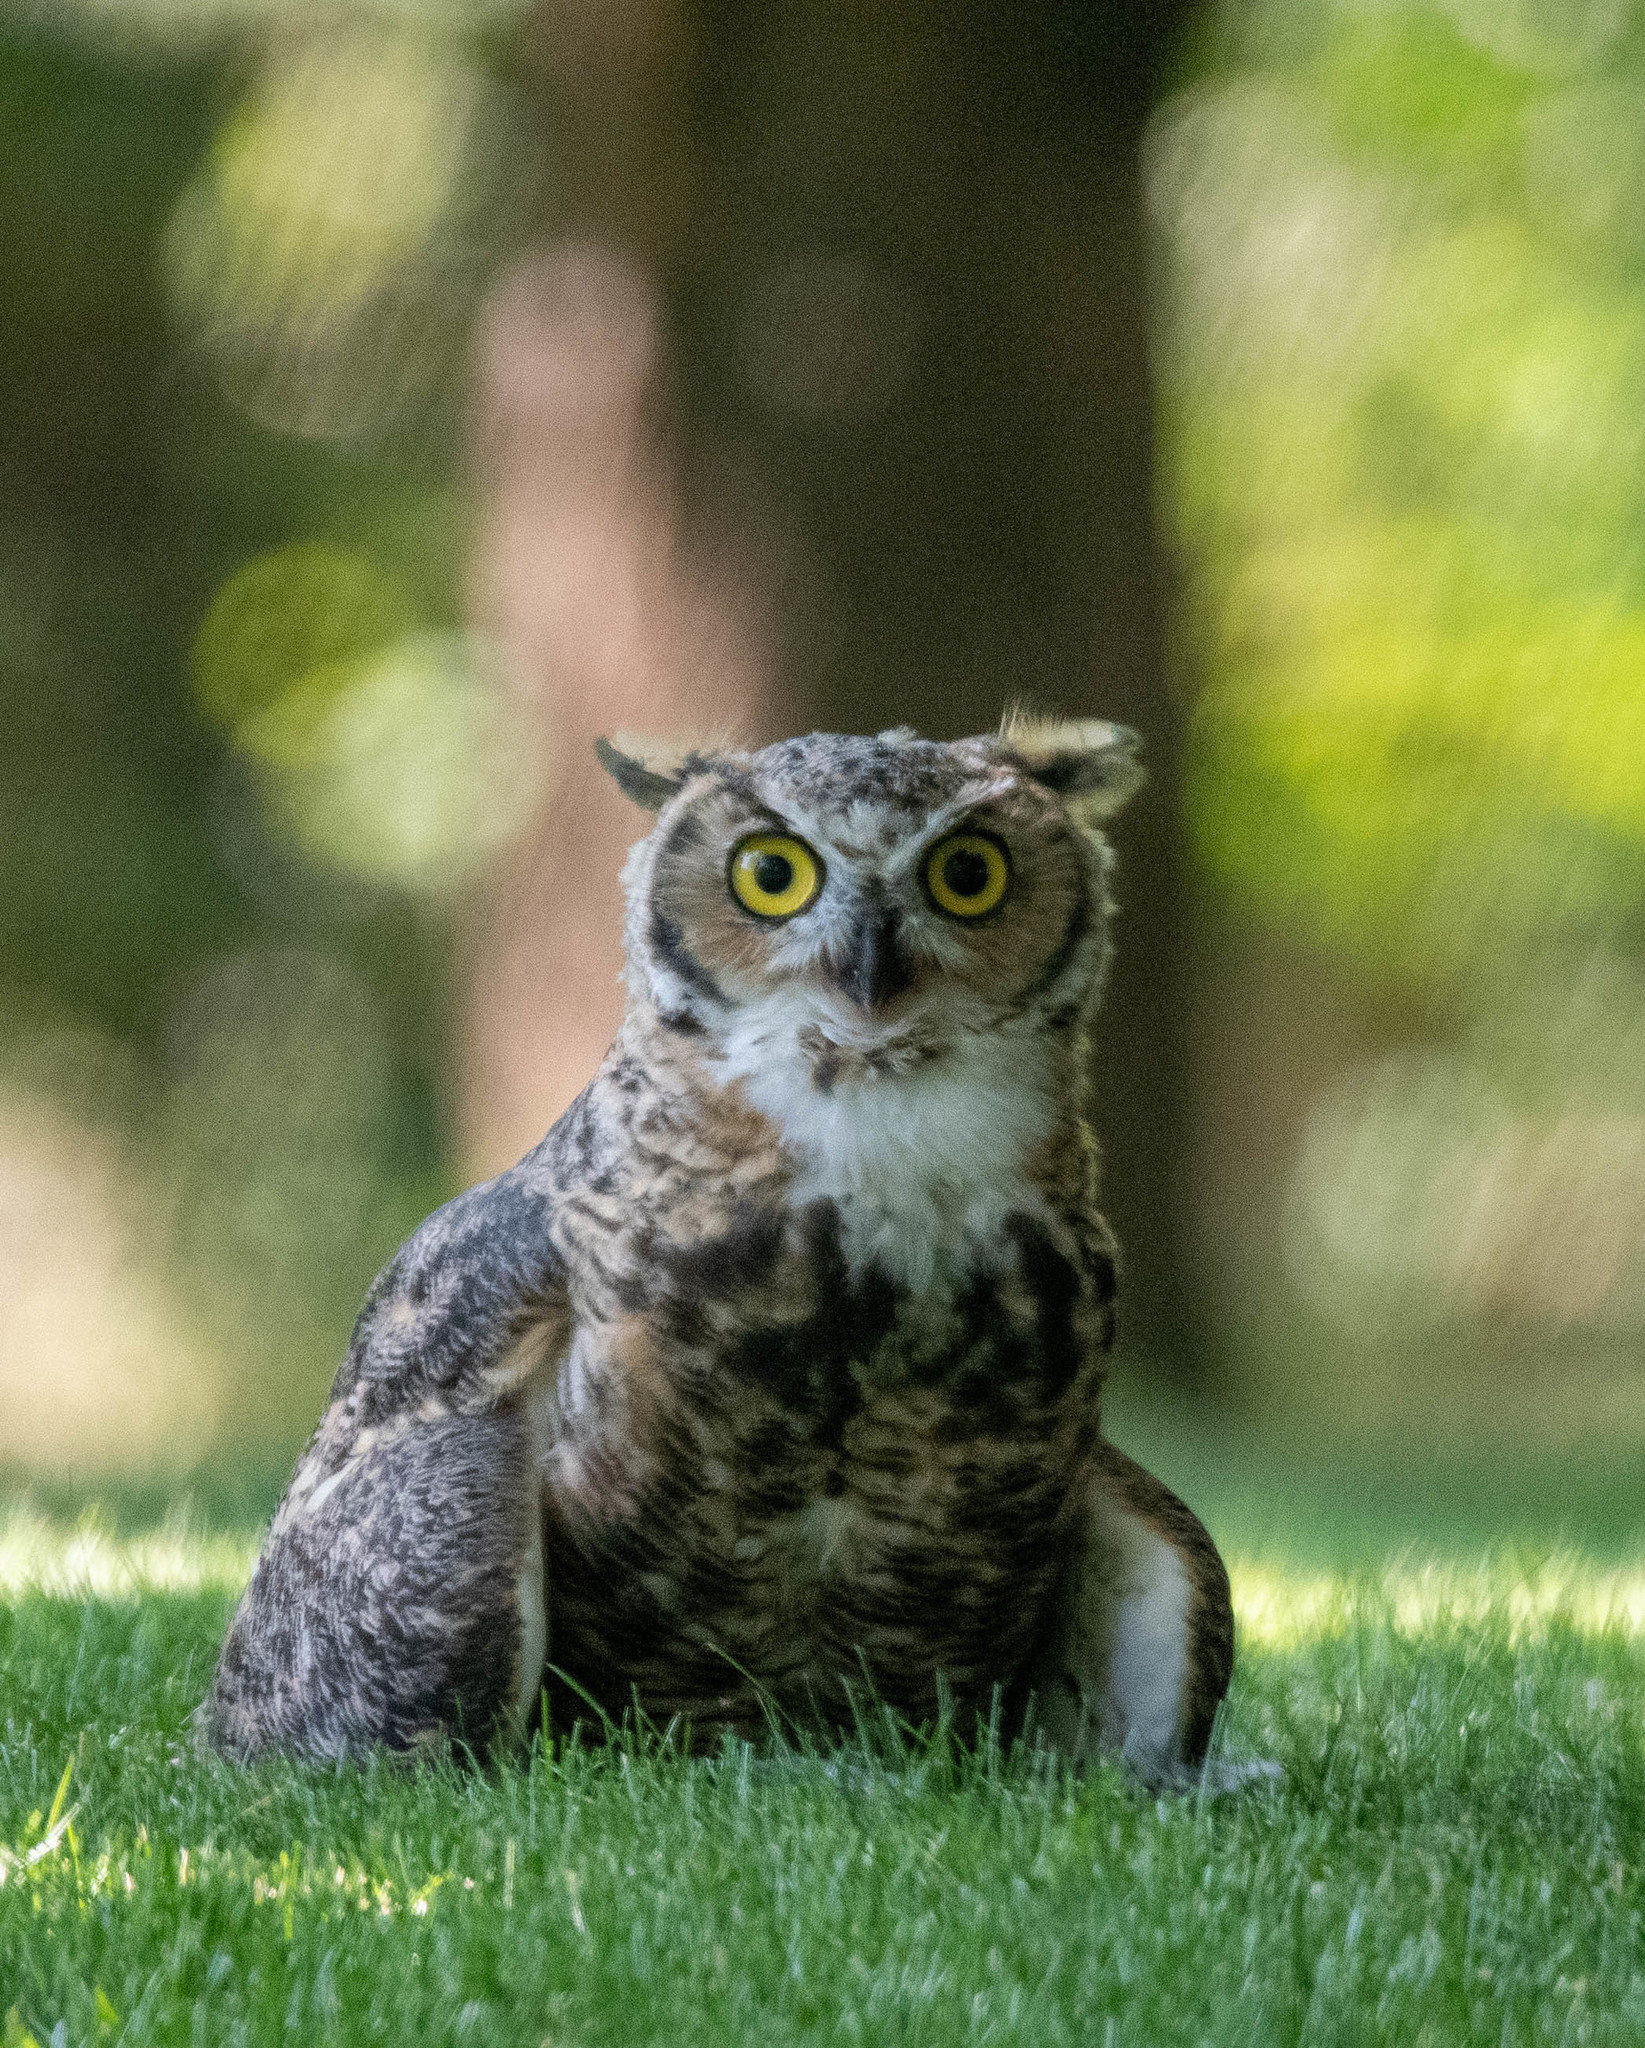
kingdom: Animalia
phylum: Chordata
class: Aves
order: Strigiformes
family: Strigidae
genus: Bubo
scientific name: Bubo virginianus
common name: Great horned owl
